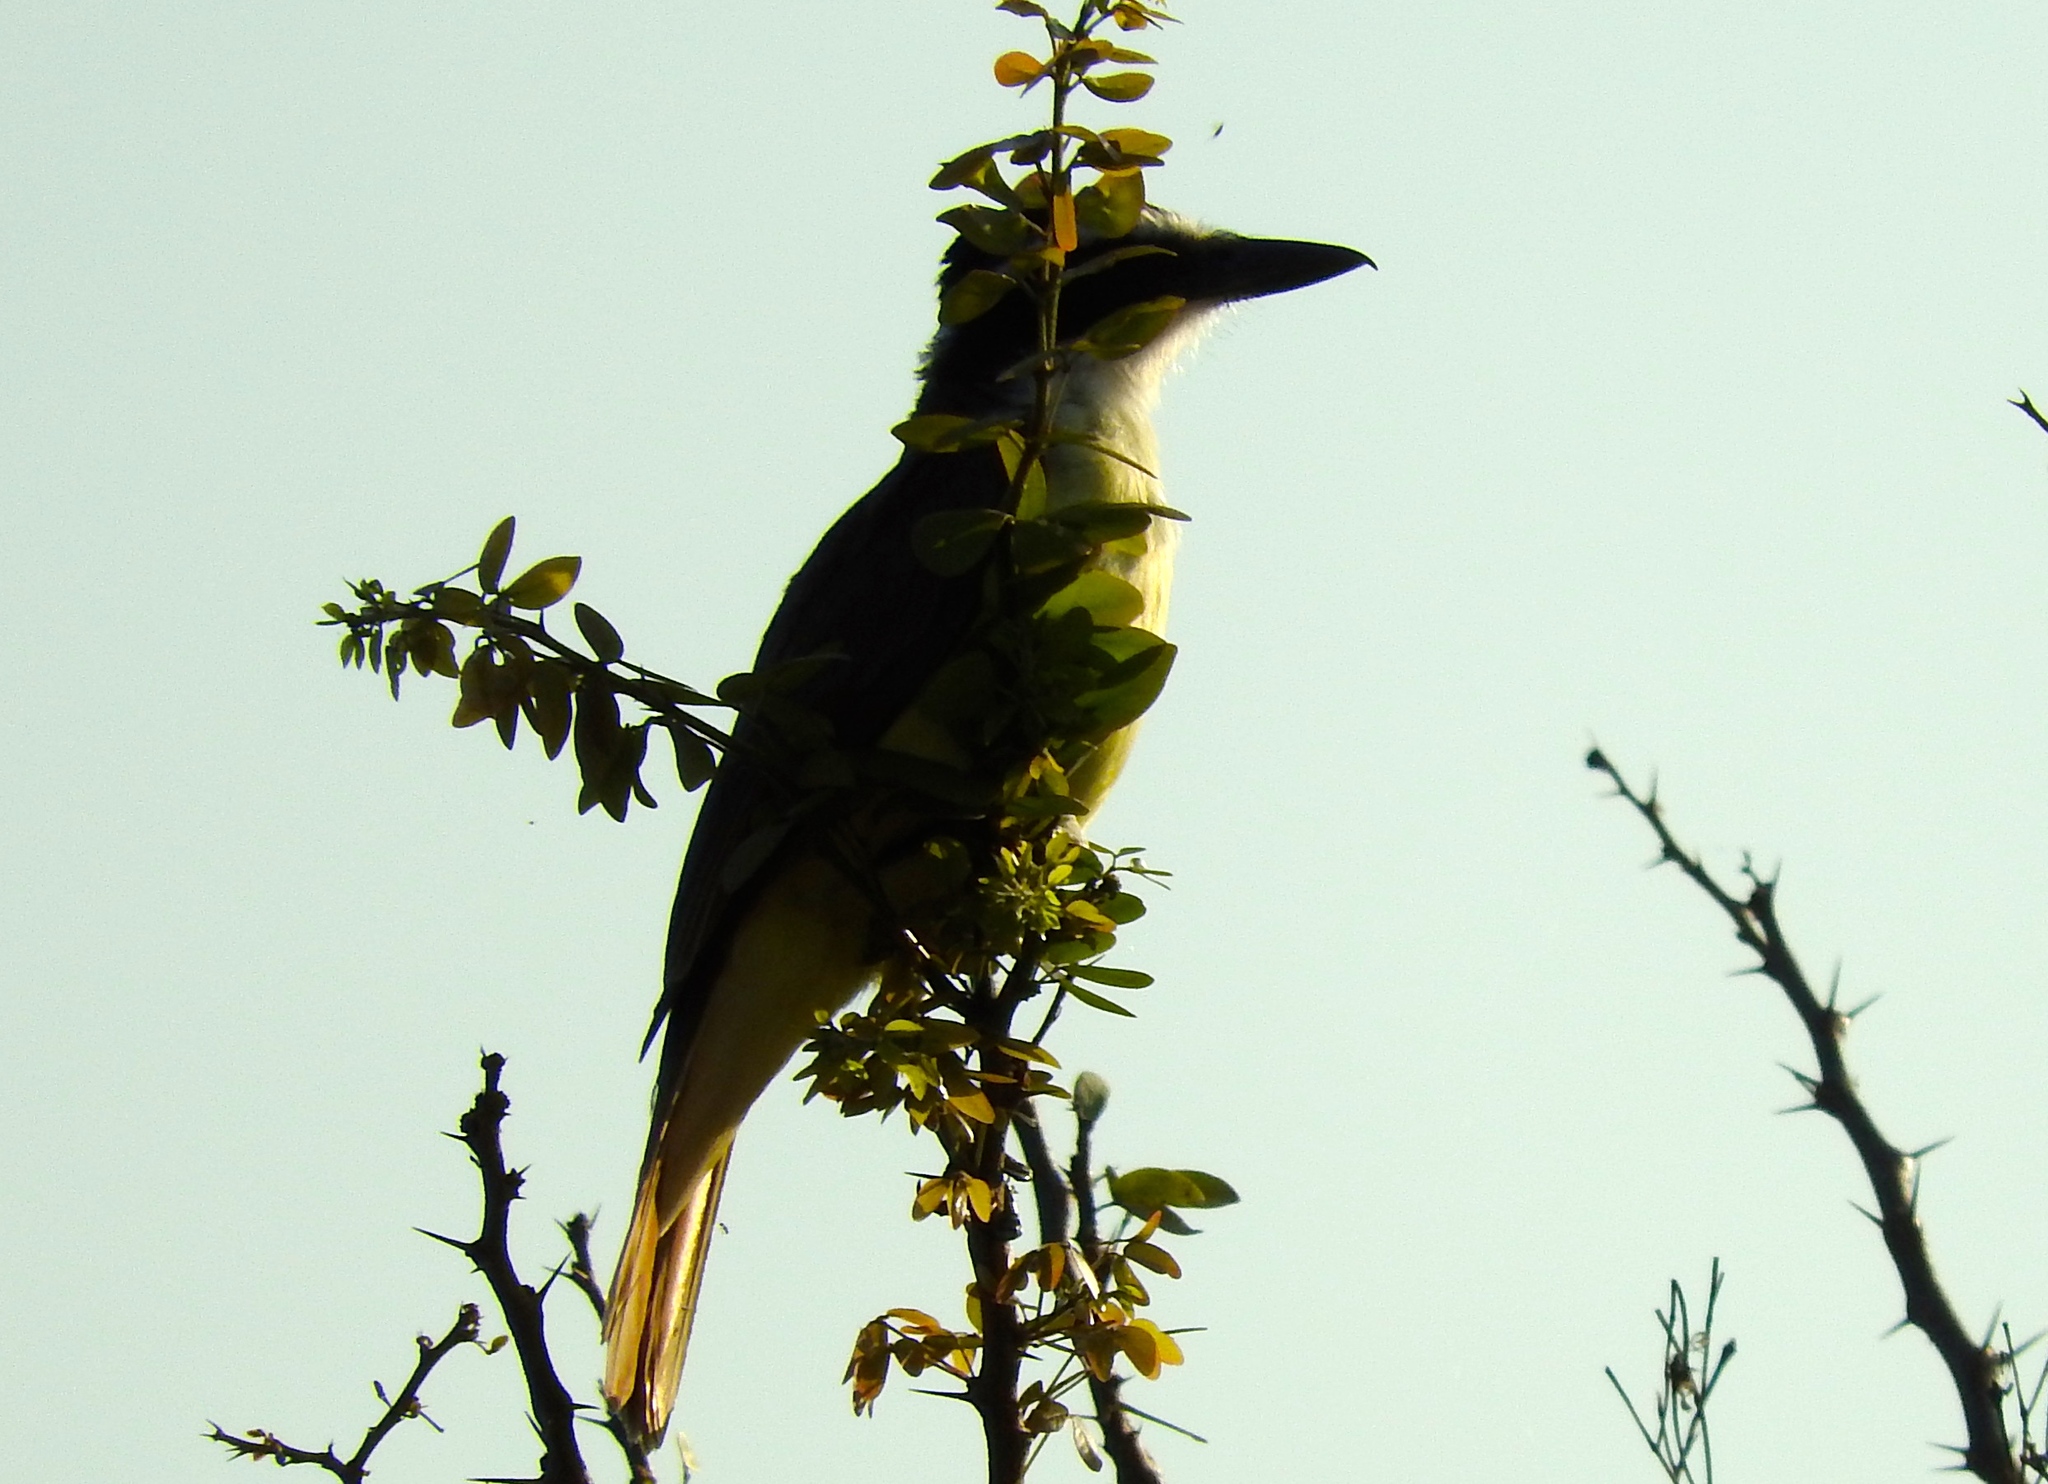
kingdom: Animalia
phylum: Chordata
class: Aves
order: Passeriformes
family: Tyrannidae
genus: Pitangus
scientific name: Pitangus sulphuratus
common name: Great kiskadee
